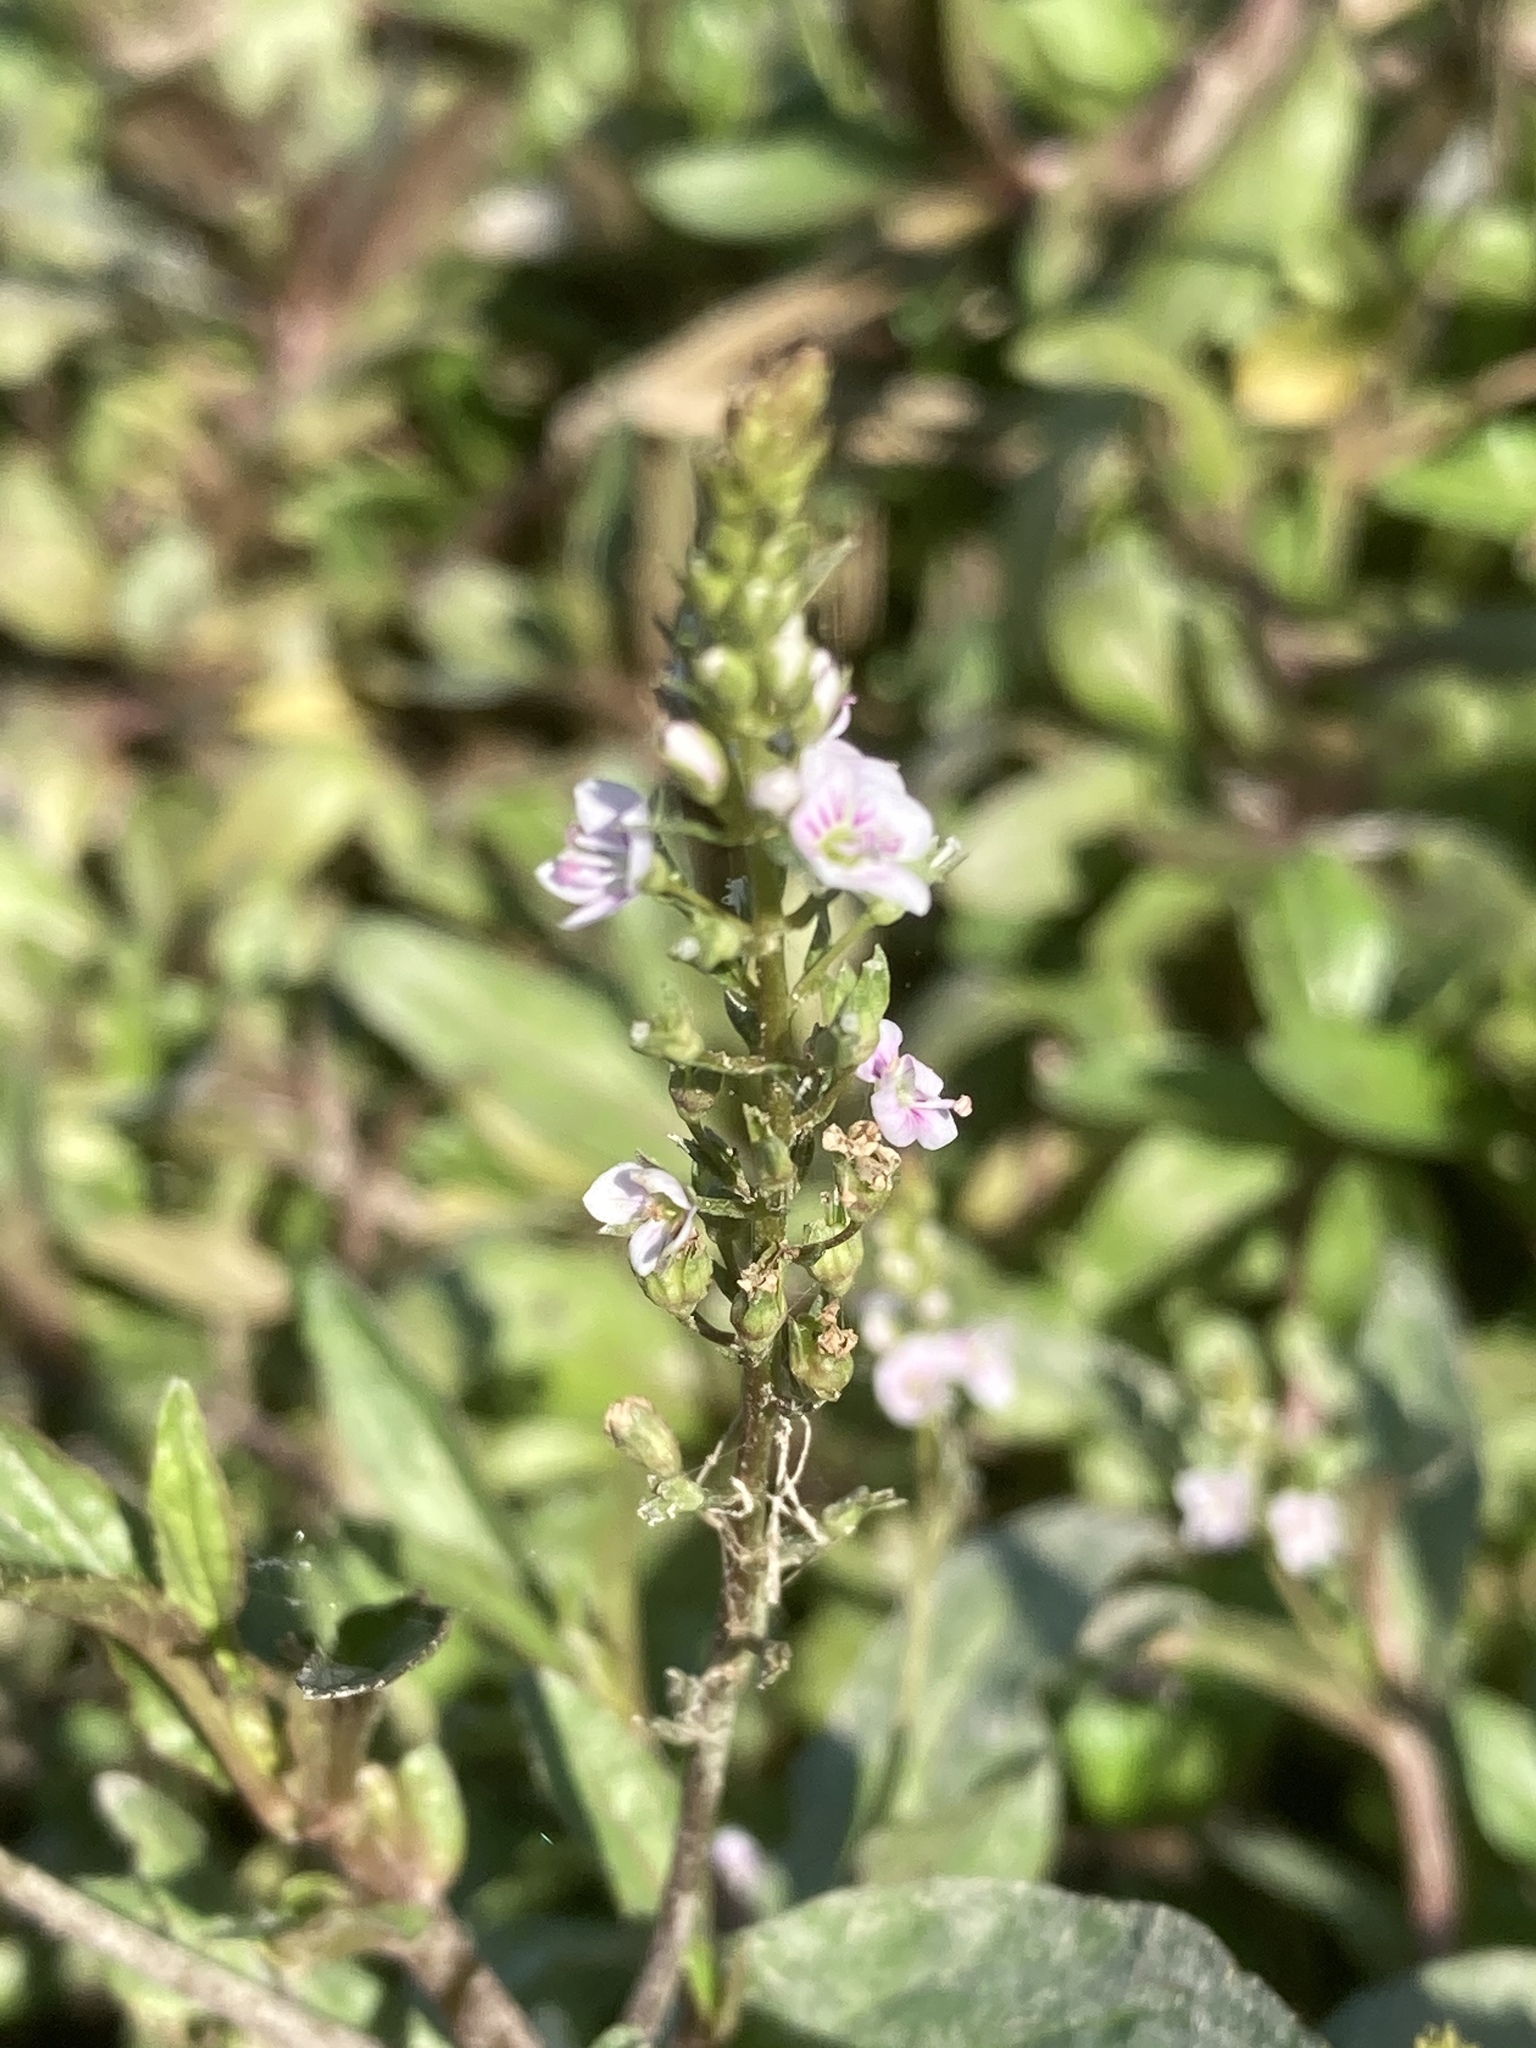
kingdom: Plantae
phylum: Tracheophyta
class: Magnoliopsida
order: Lamiales
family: Plantaginaceae
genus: Veronica
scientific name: Veronica catenata
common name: Pink water-speedwell
